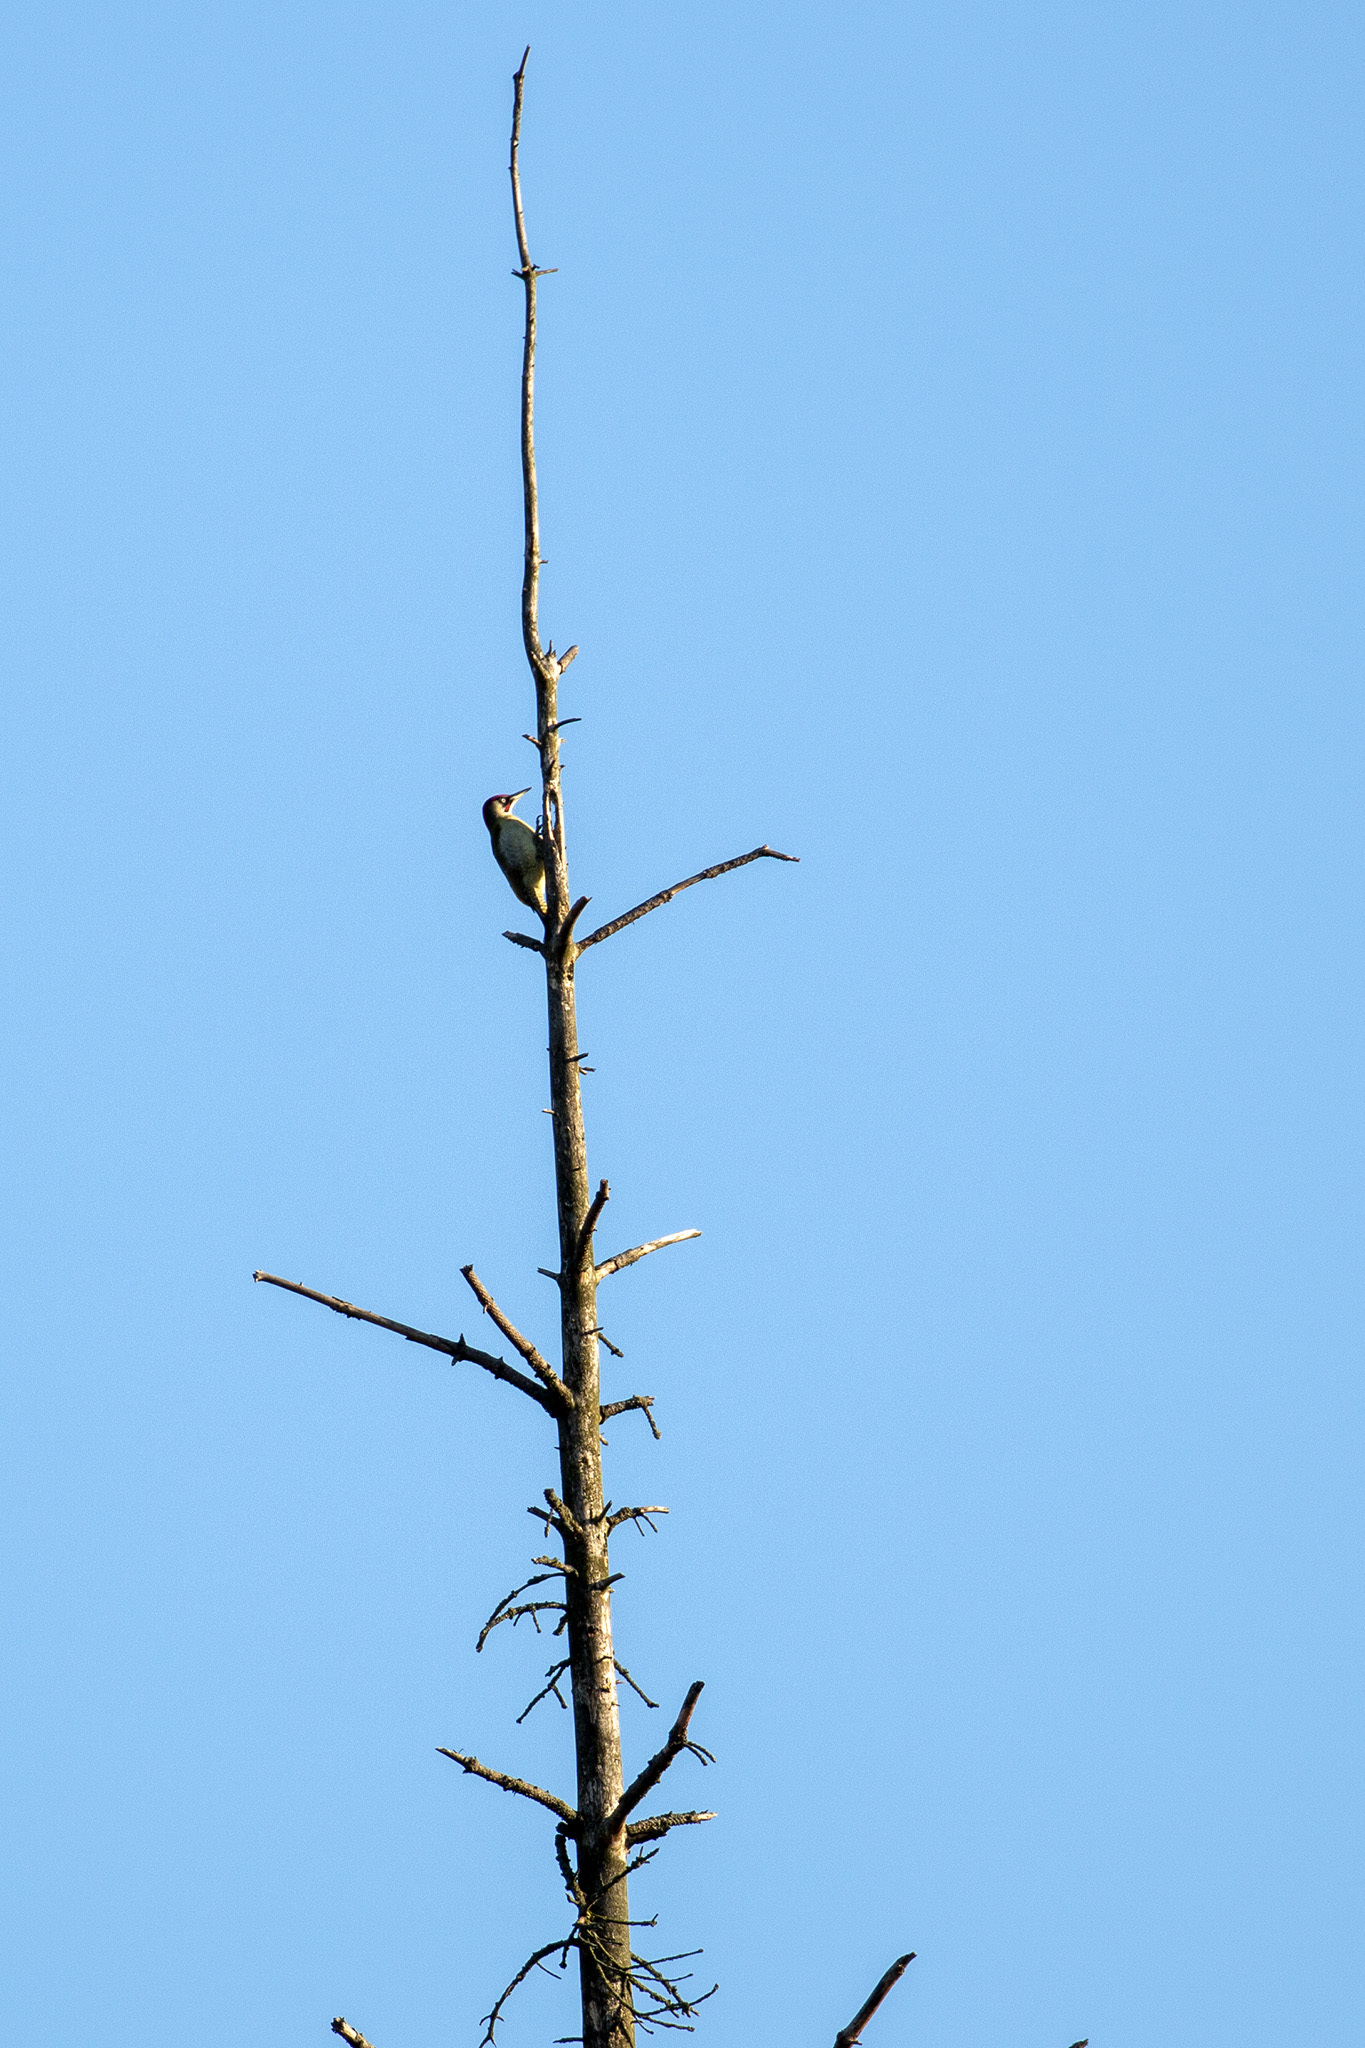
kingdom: Animalia
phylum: Chordata
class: Aves
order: Piciformes
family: Picidae
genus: Picus
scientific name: Picus viridis
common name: European green woodpecker
